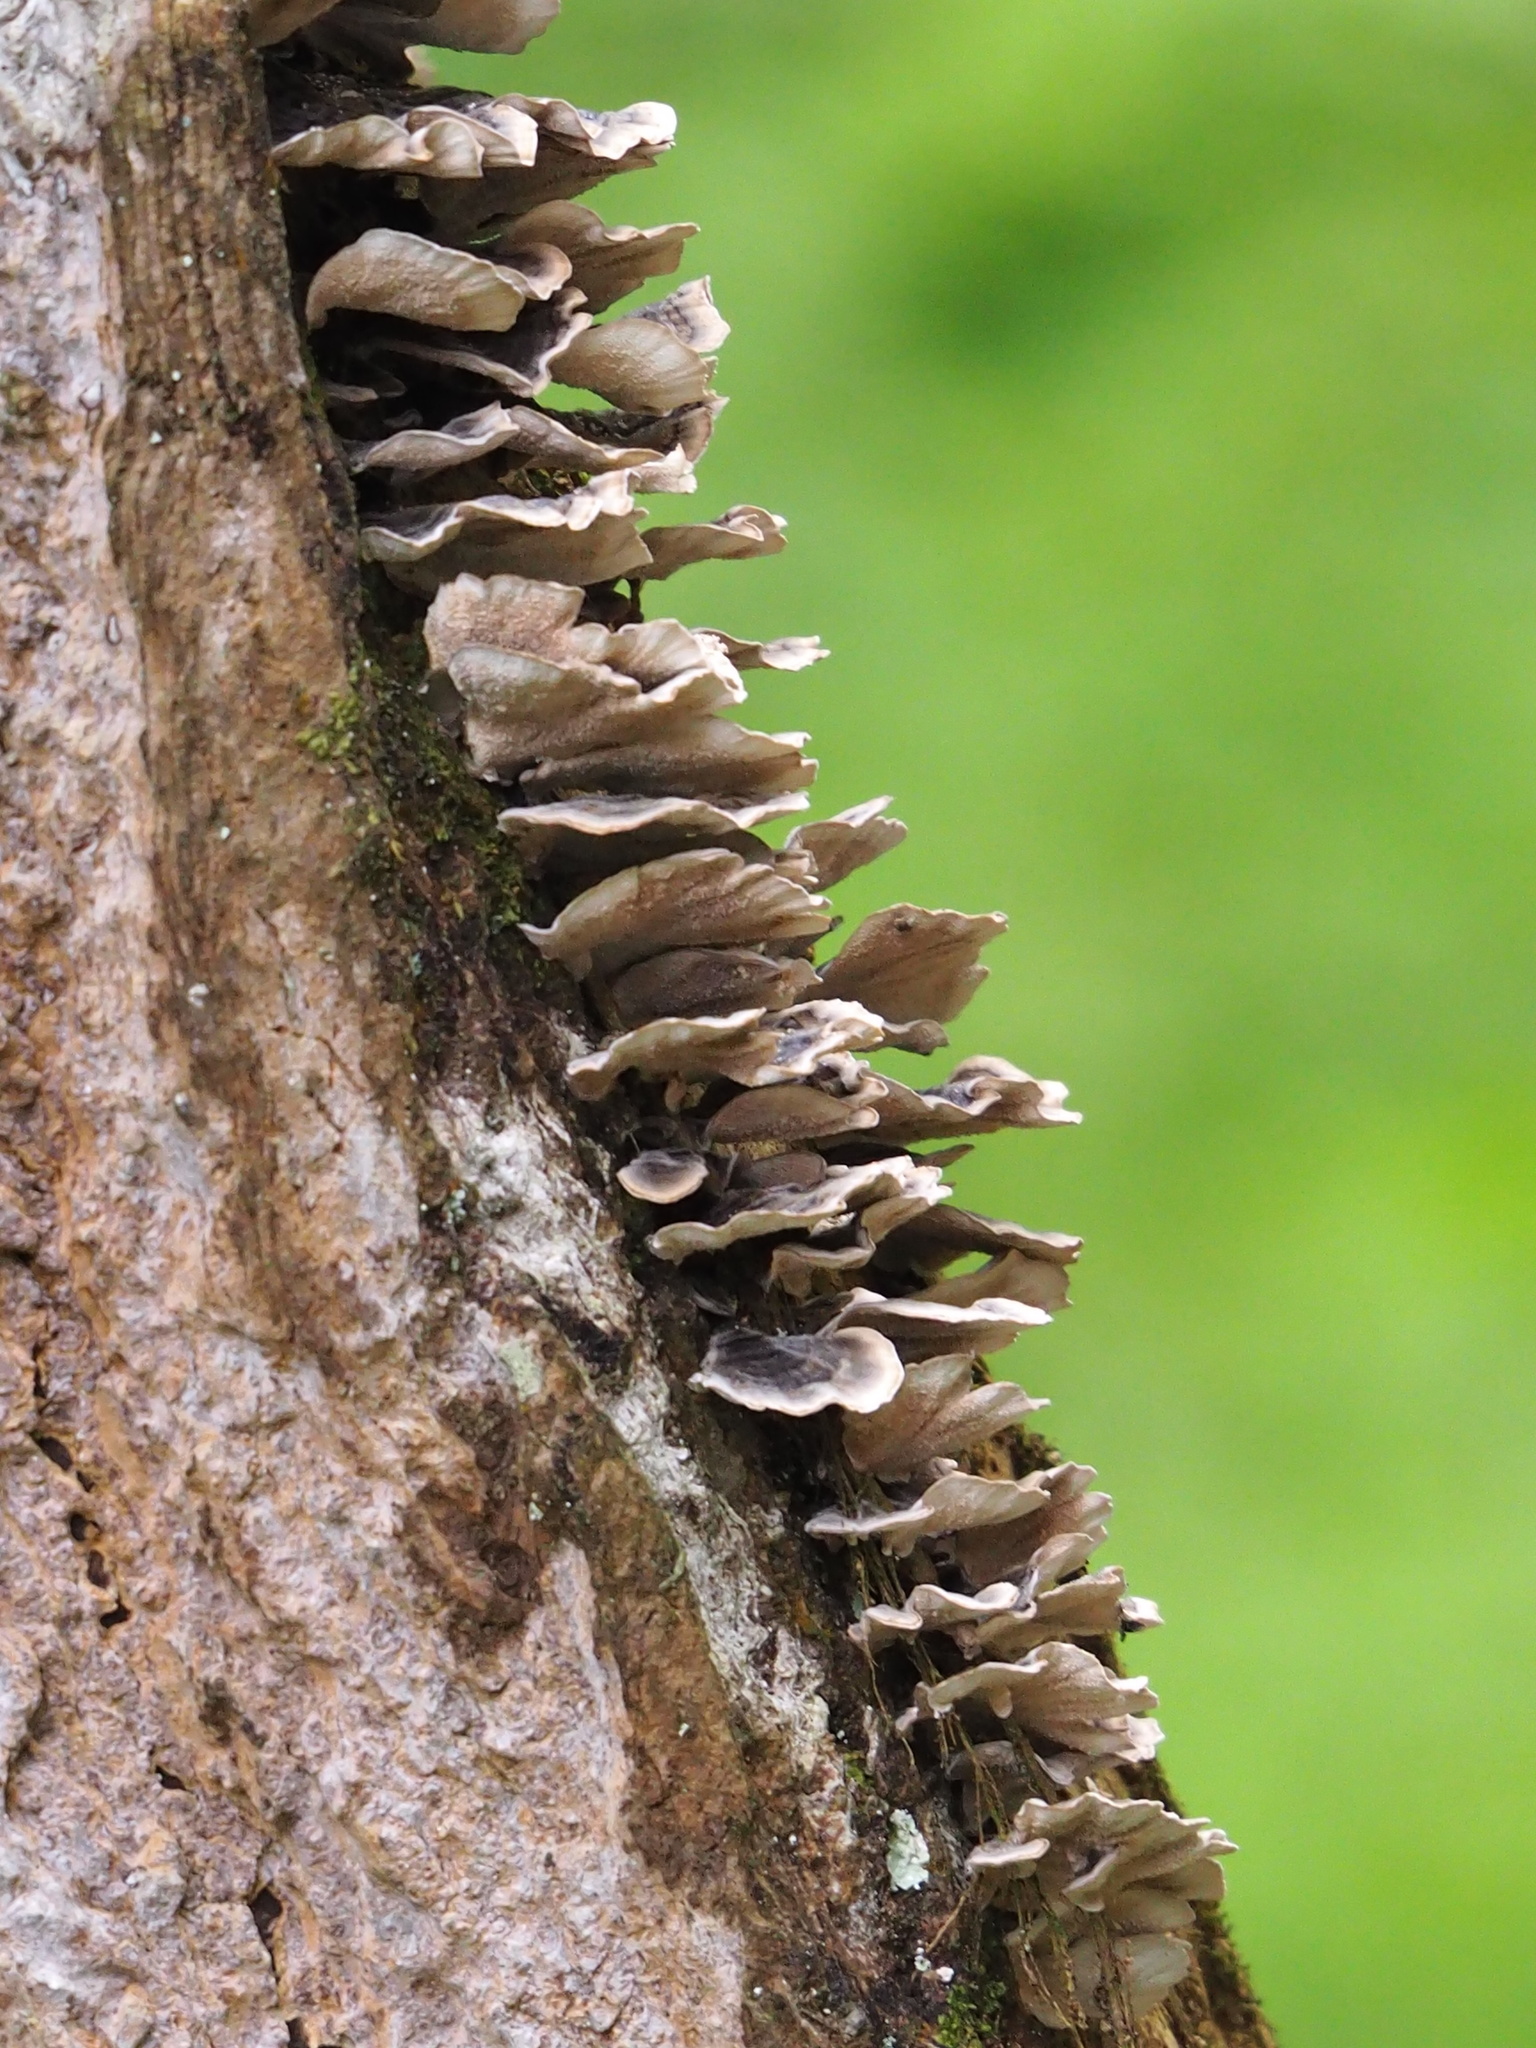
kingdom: Fungi
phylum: Basidiomycota
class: Agaricomycetes
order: Polyporales
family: Polyporaceae
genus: Trametes
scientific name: Trametes versicolor
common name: Turkeytail
